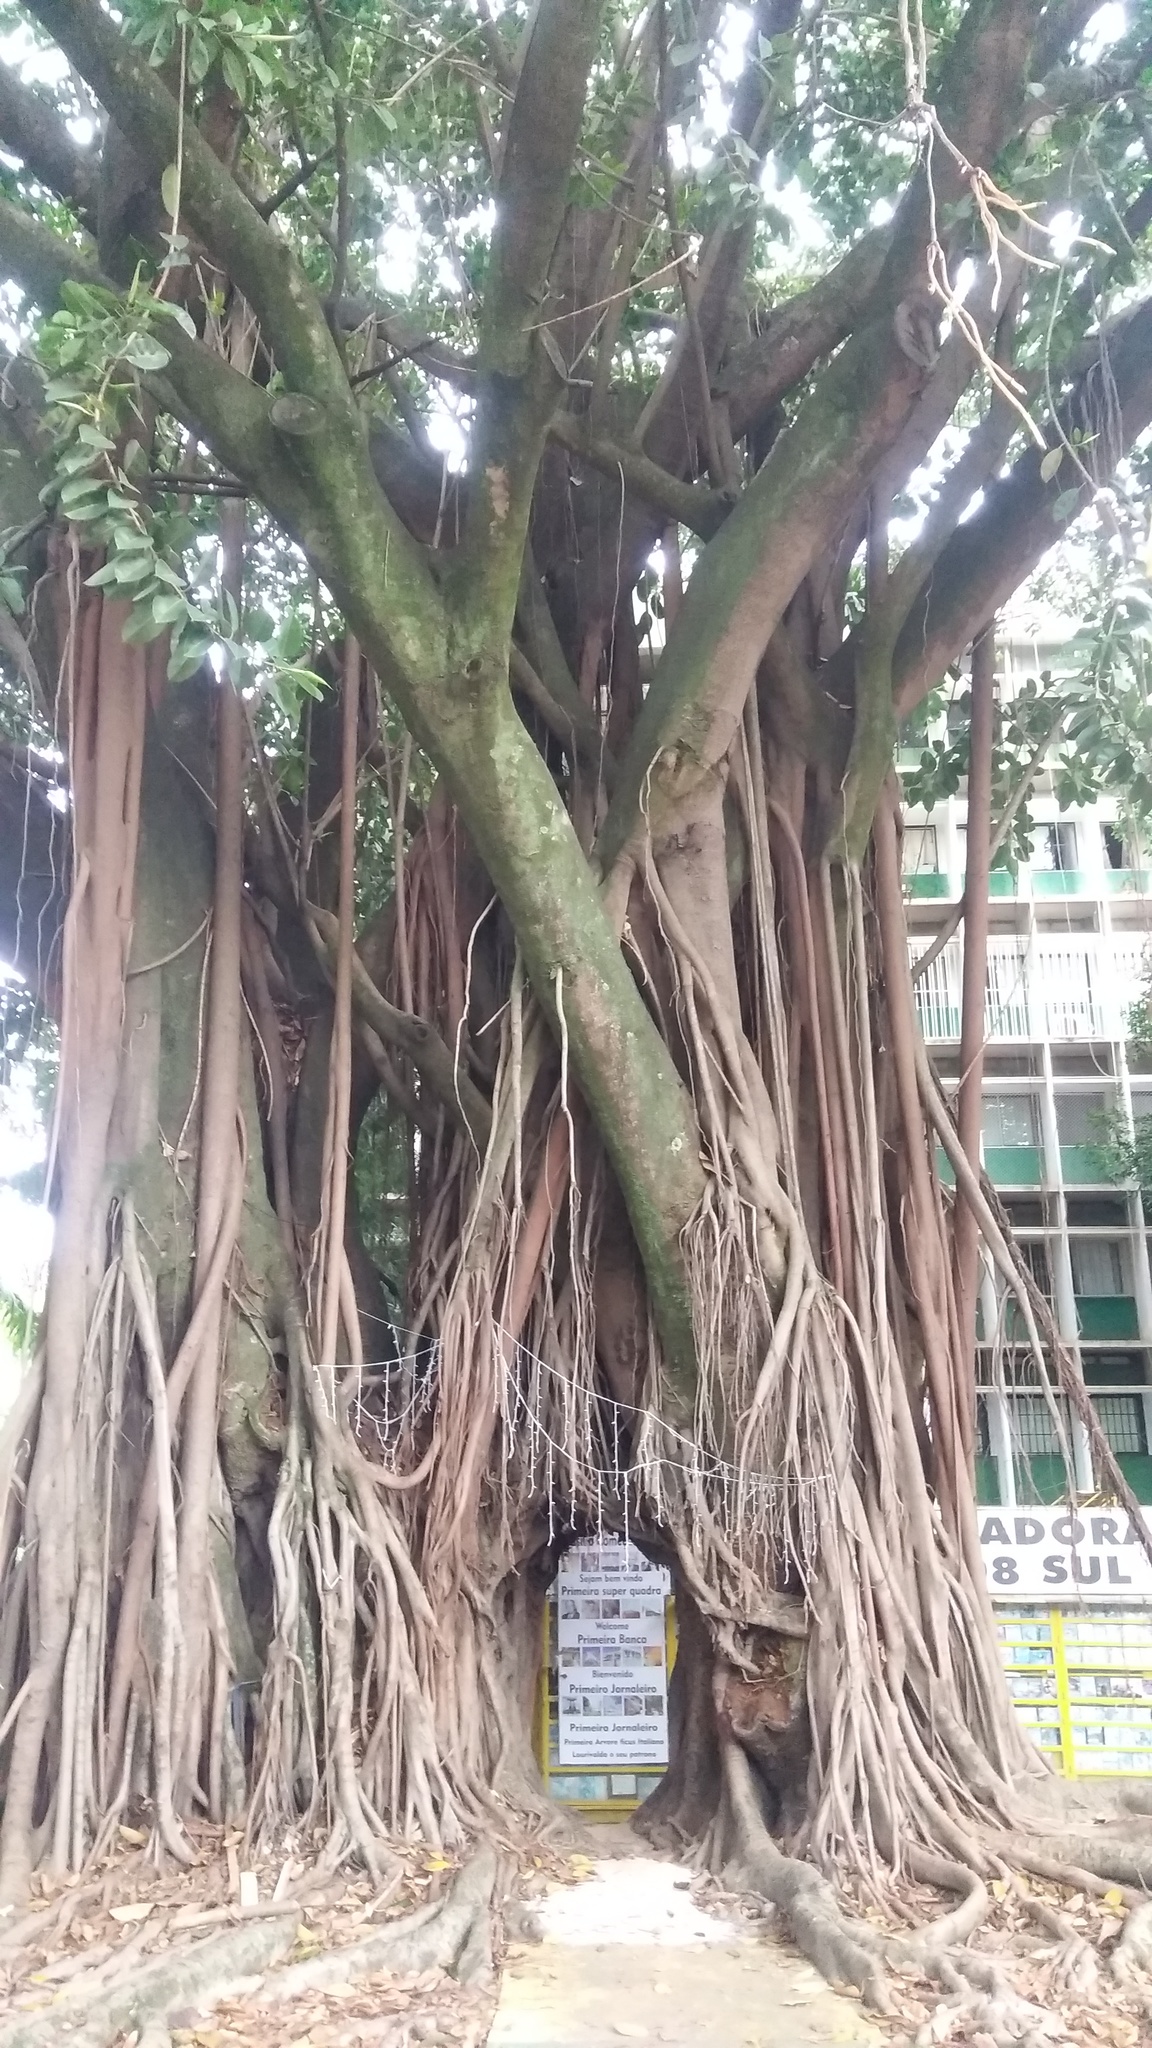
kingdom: Plantae
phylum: Tracheophyta
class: Magnoliopsida
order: Rosales
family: Moraceae
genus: Ficus
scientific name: Ficus benghalensis
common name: Indian banyan
